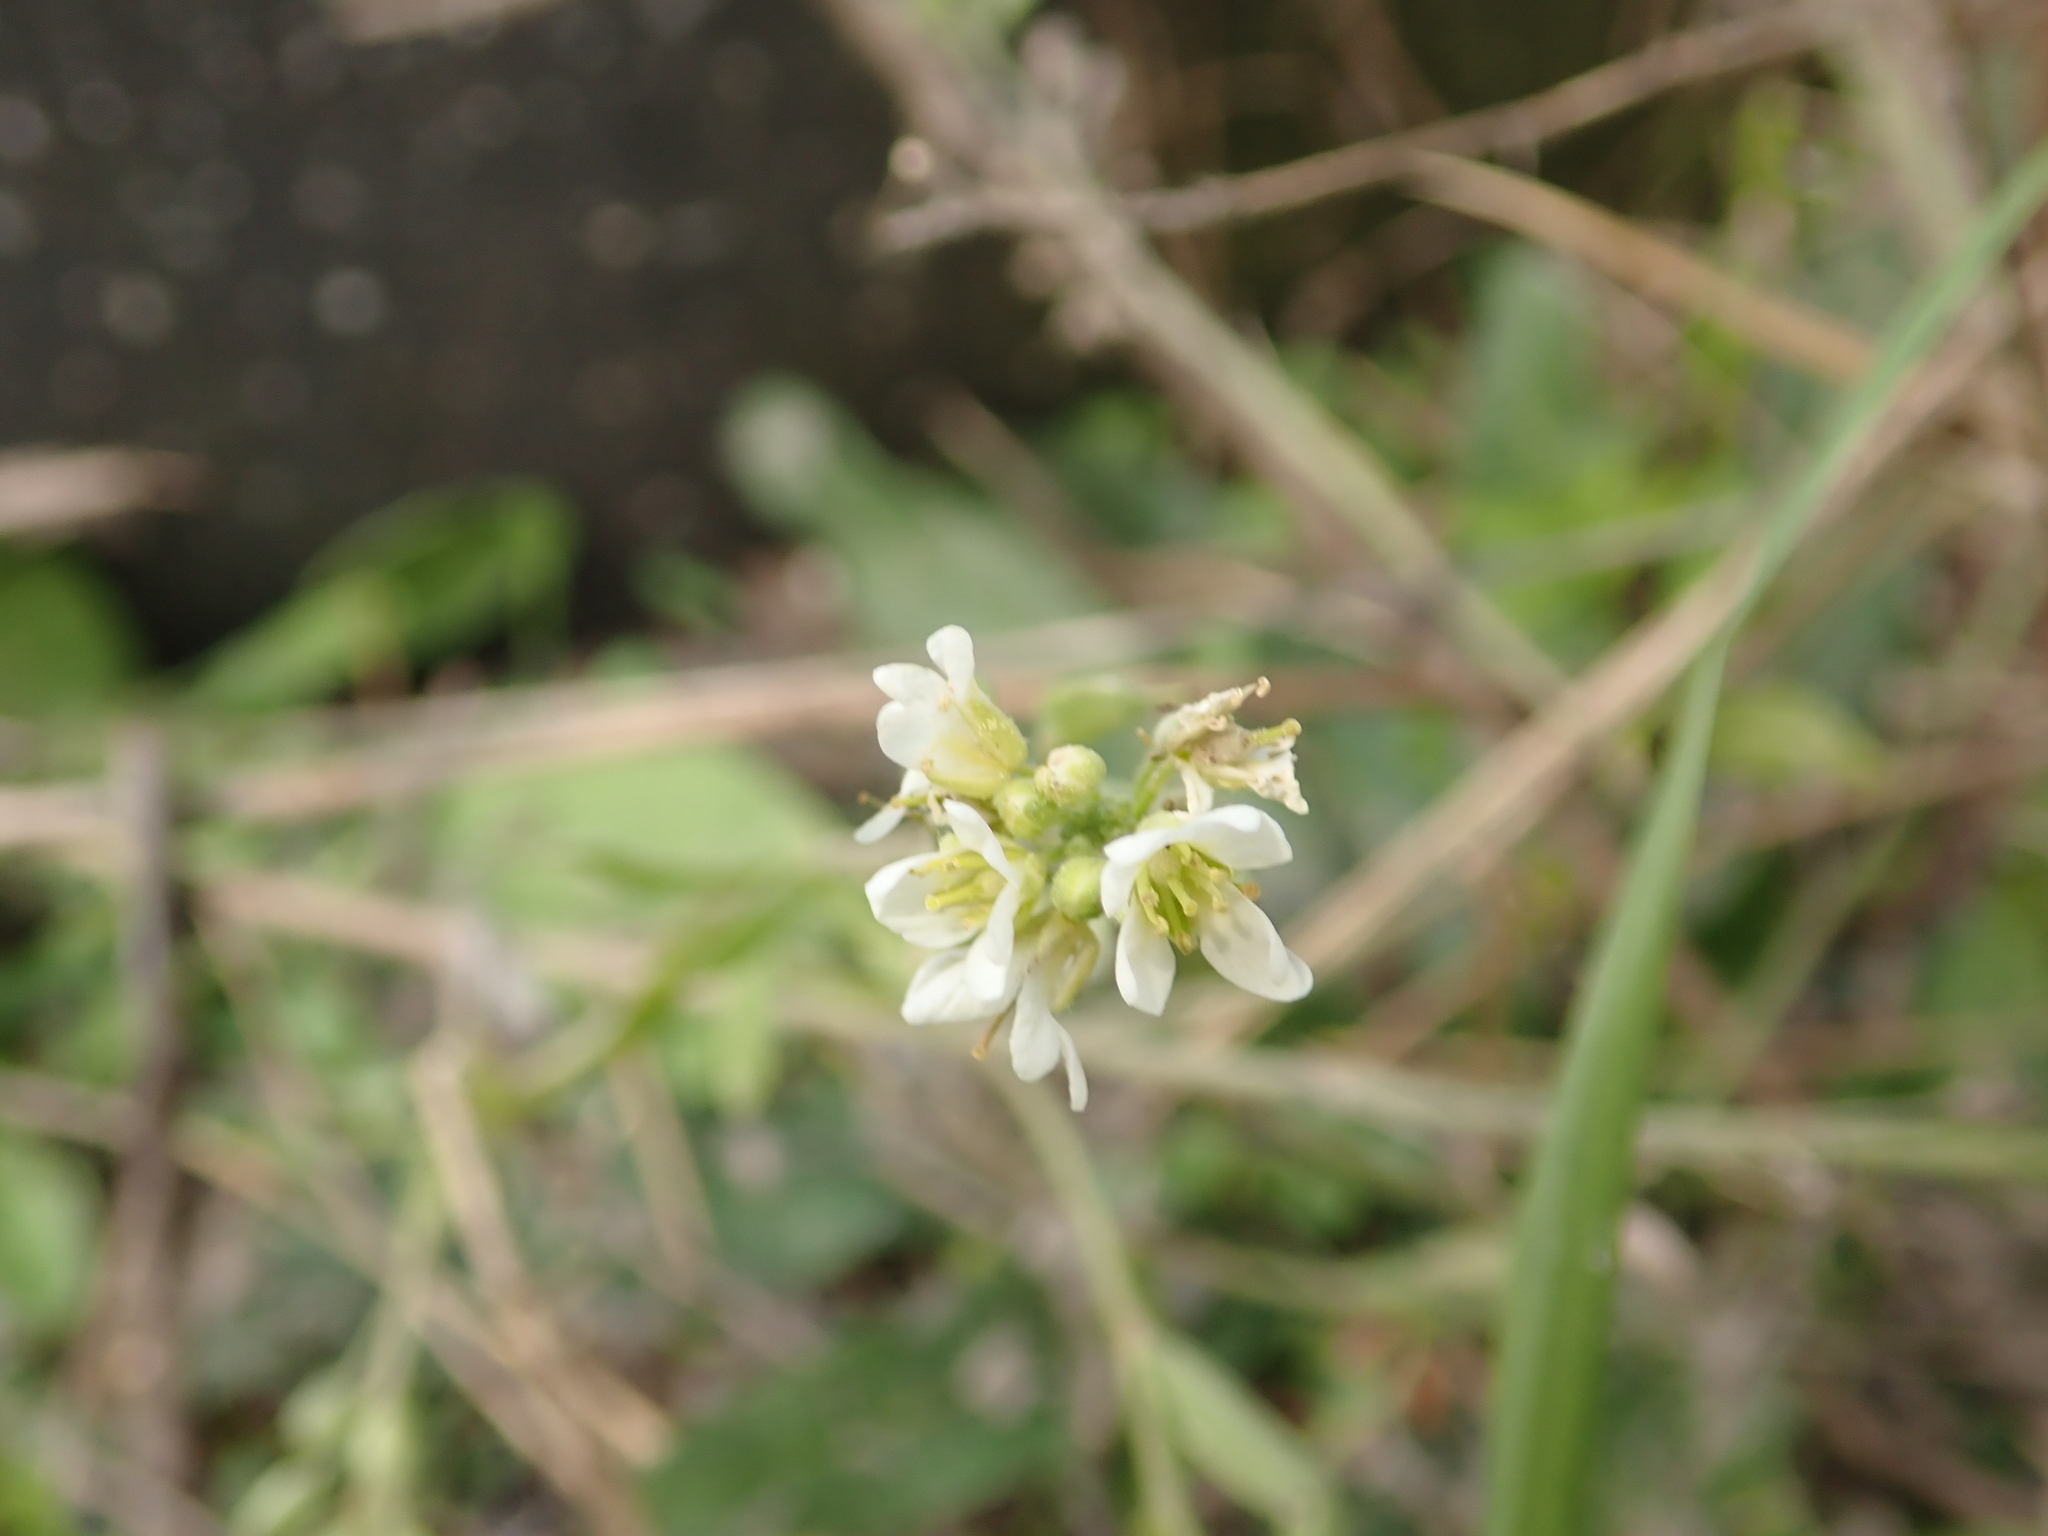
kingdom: Plantae
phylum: Tracheophyta
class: Magnoliopsida
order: Brassicales
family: Brassicaceae
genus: Berteroa
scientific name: Berteroa incana
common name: Hoary alison
